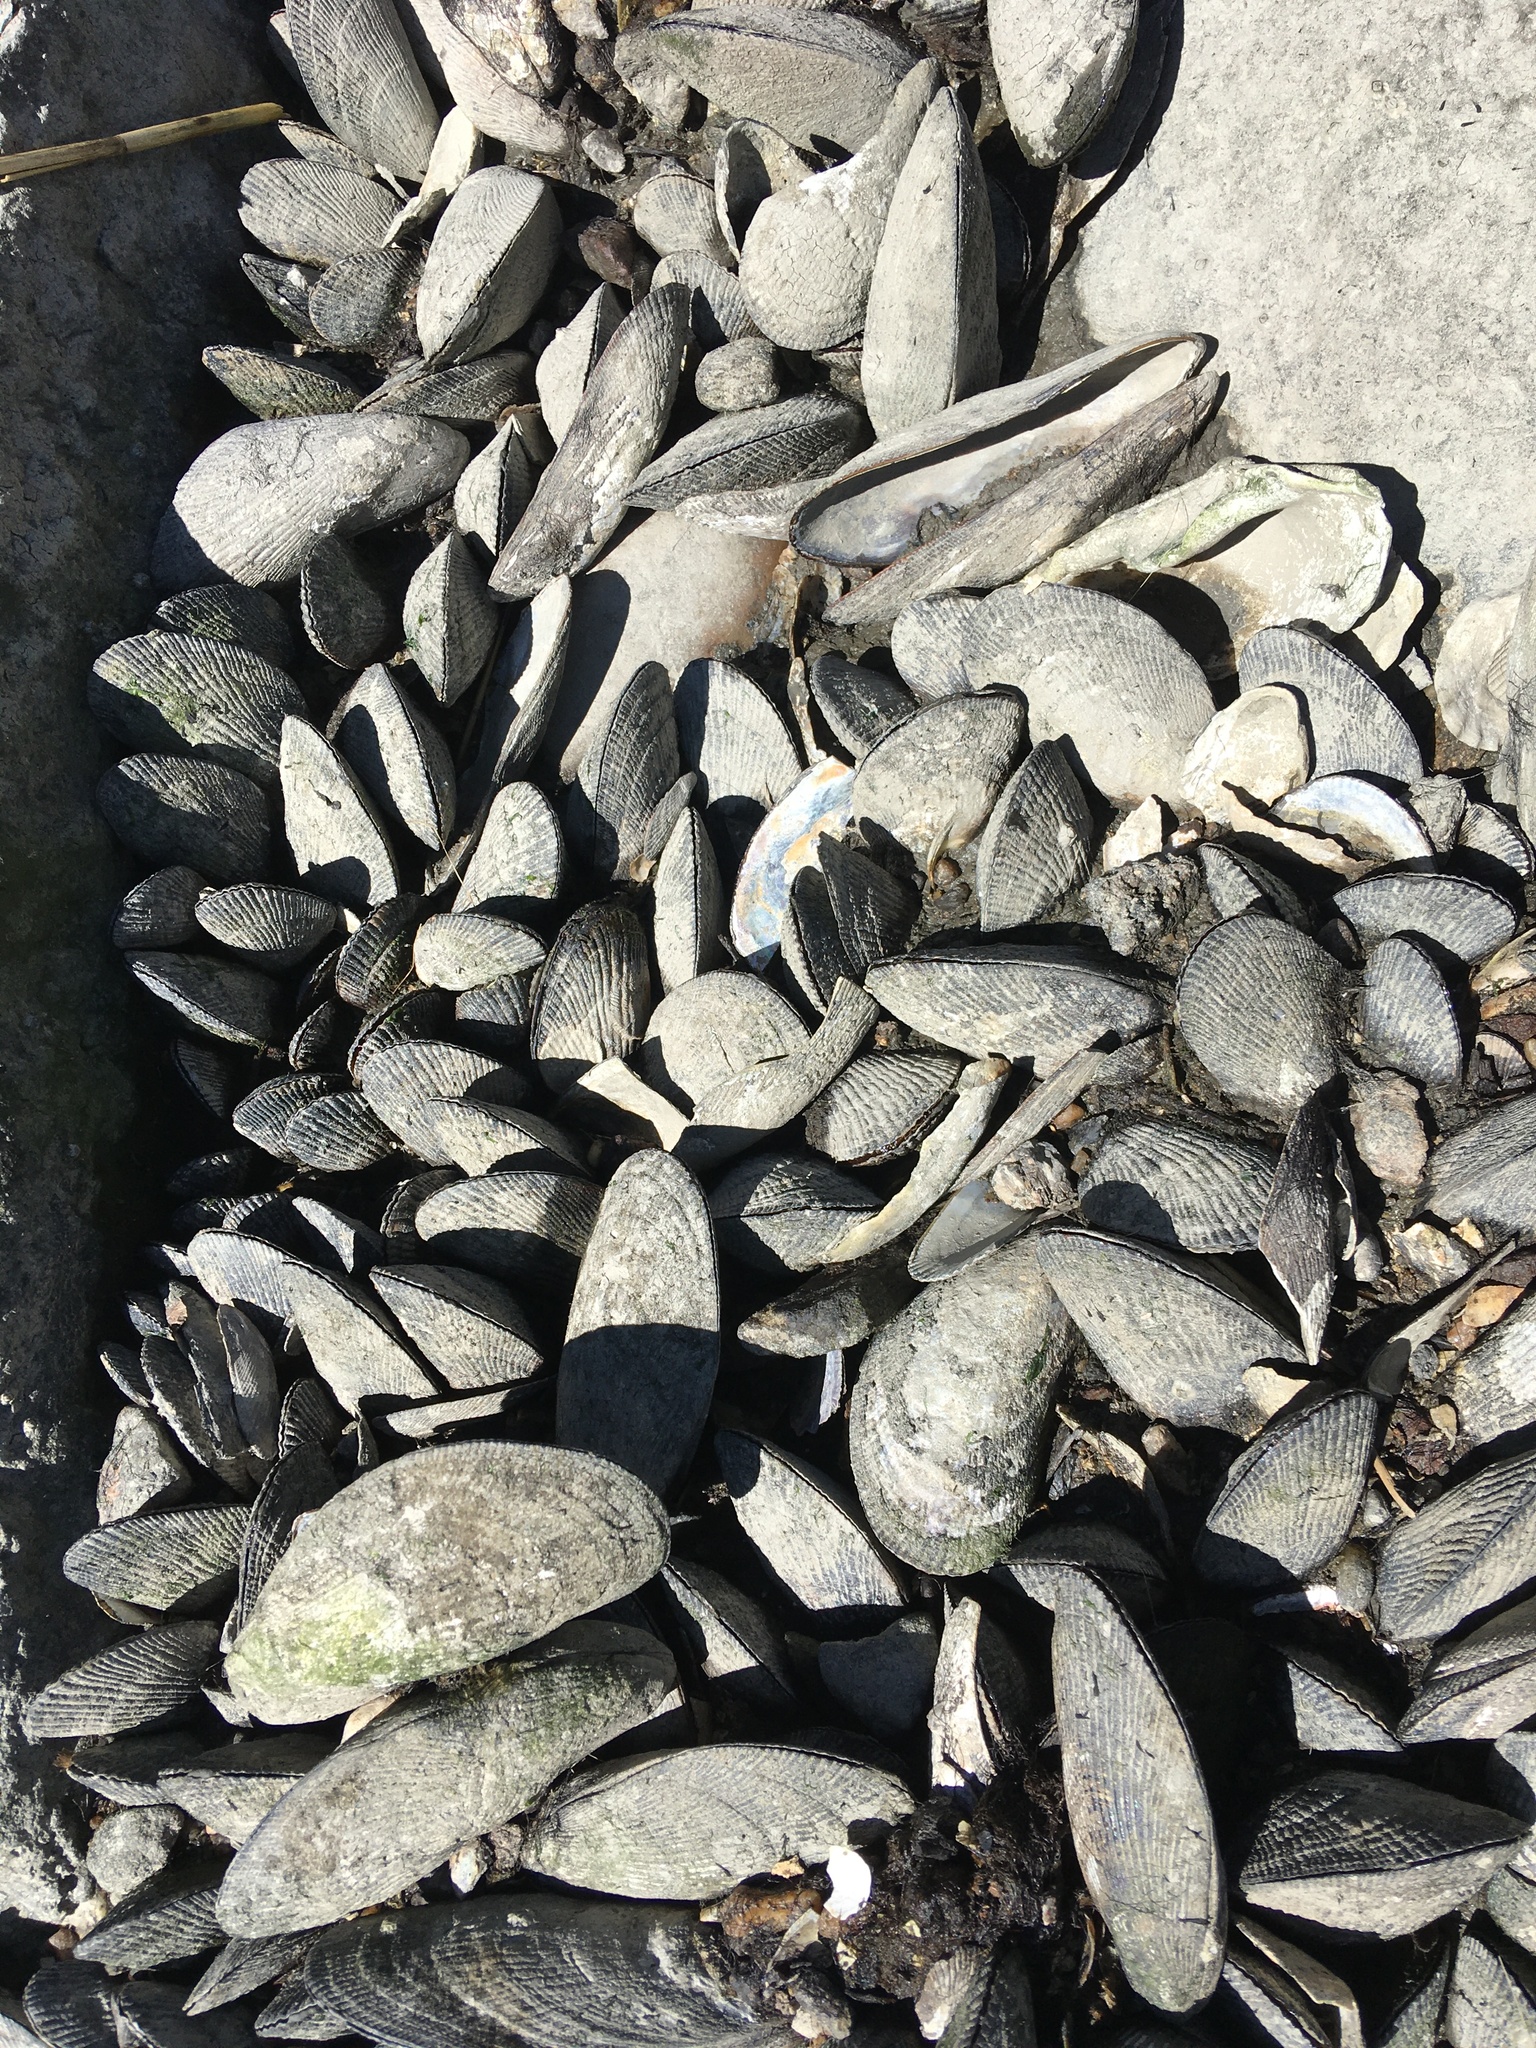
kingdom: Animalia
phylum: Mollusca
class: Bivalvia
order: Mytilida
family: Mytilidae
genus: Geukensia
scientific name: Geukensia demissa
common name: Ribbed mussel
